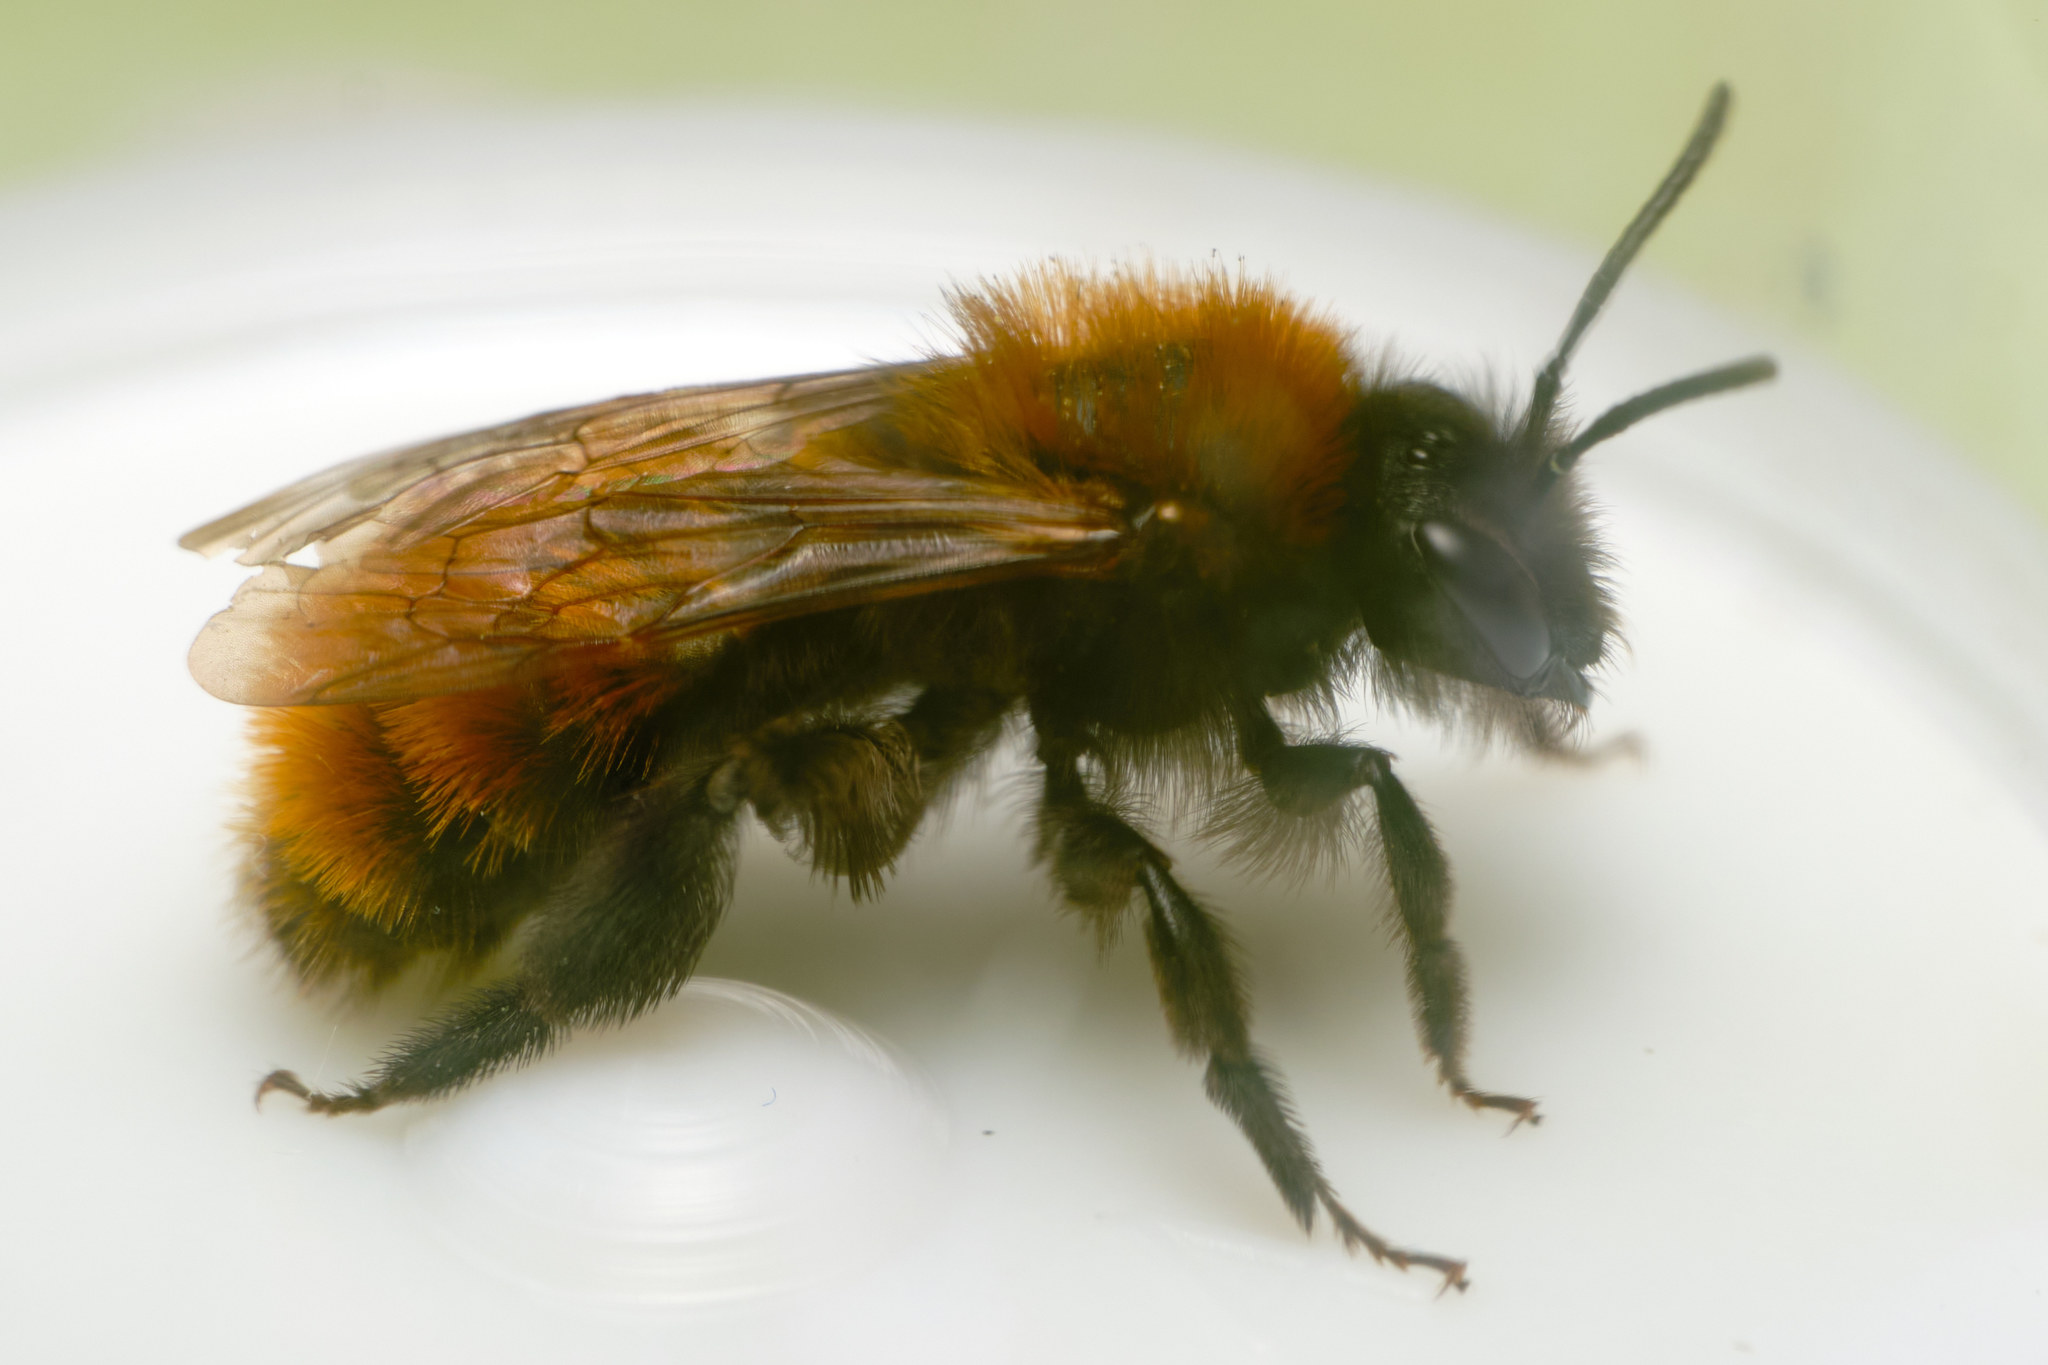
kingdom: Animalia
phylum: Arthropoda
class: Insecta
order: Hymenoptera
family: Andrenidae
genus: Andrena
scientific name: Andrena fulva
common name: Tawny mining bee
